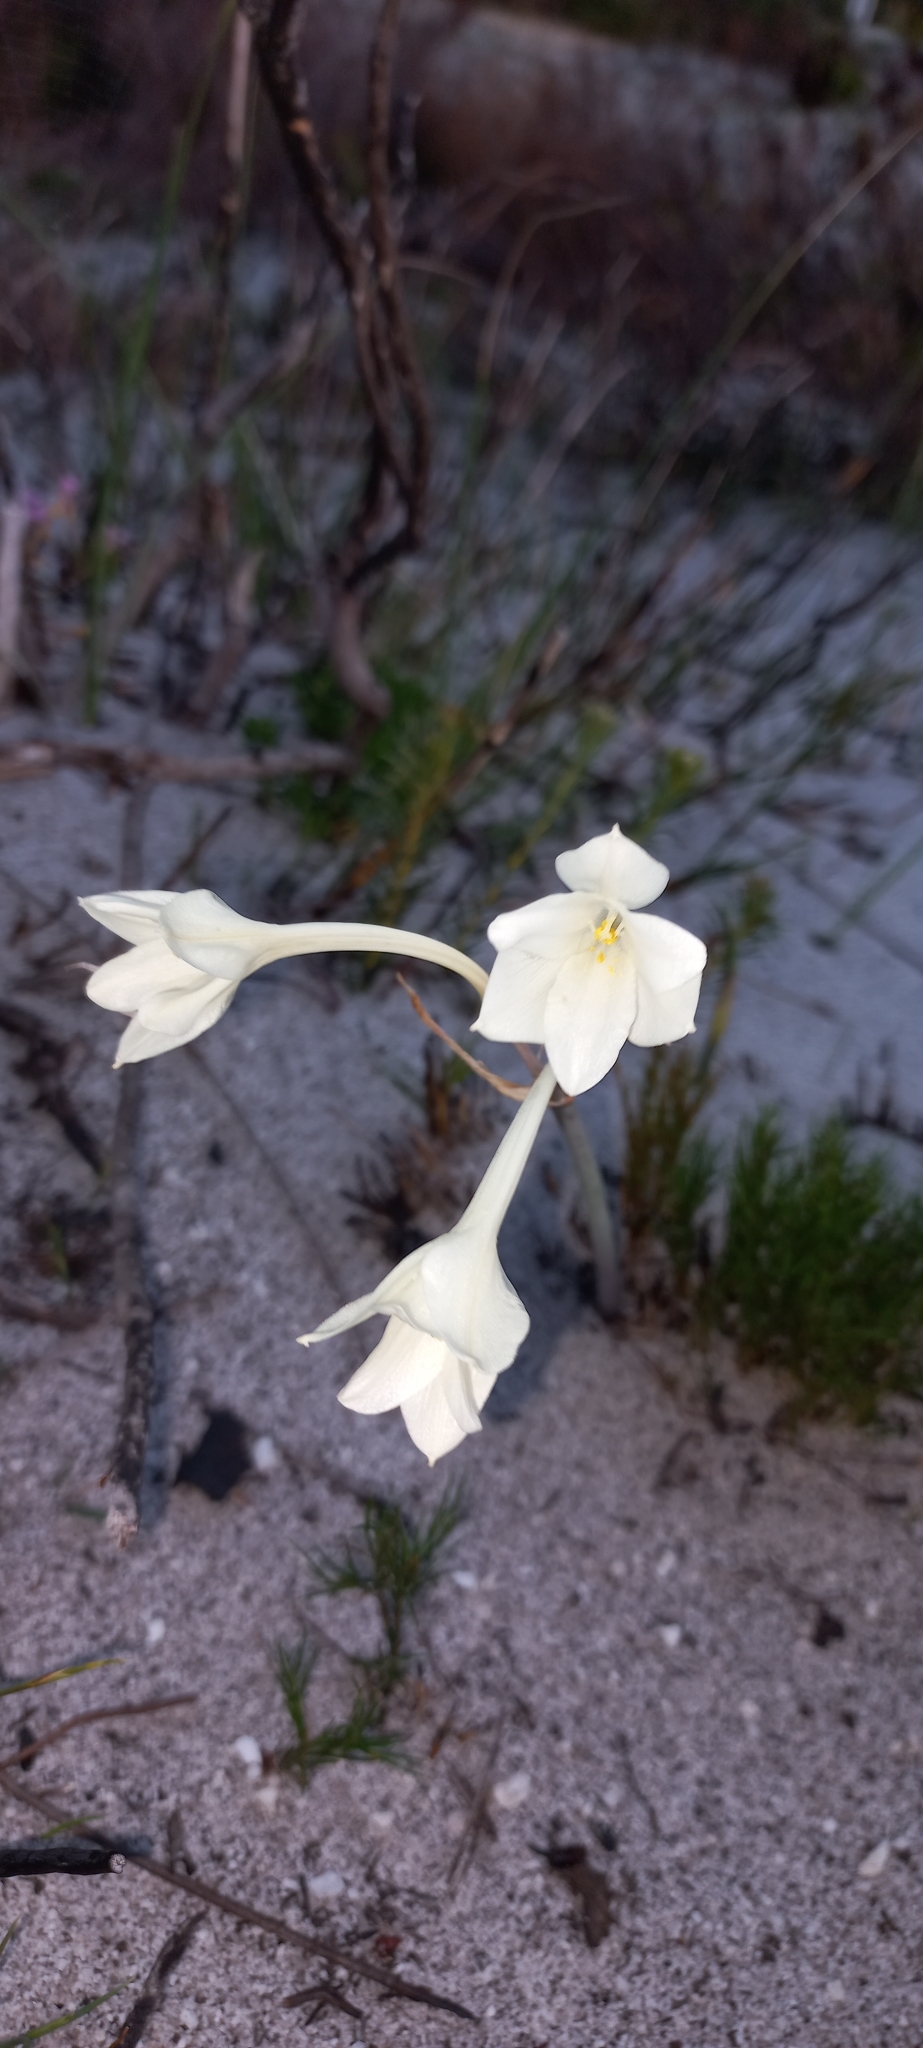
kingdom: Plantae
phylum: Tracheophyta
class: Liliopsida
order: Asparagales
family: Amaryllidaceae
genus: Cyrtanthus
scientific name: Cyrtanthus leucanthus
